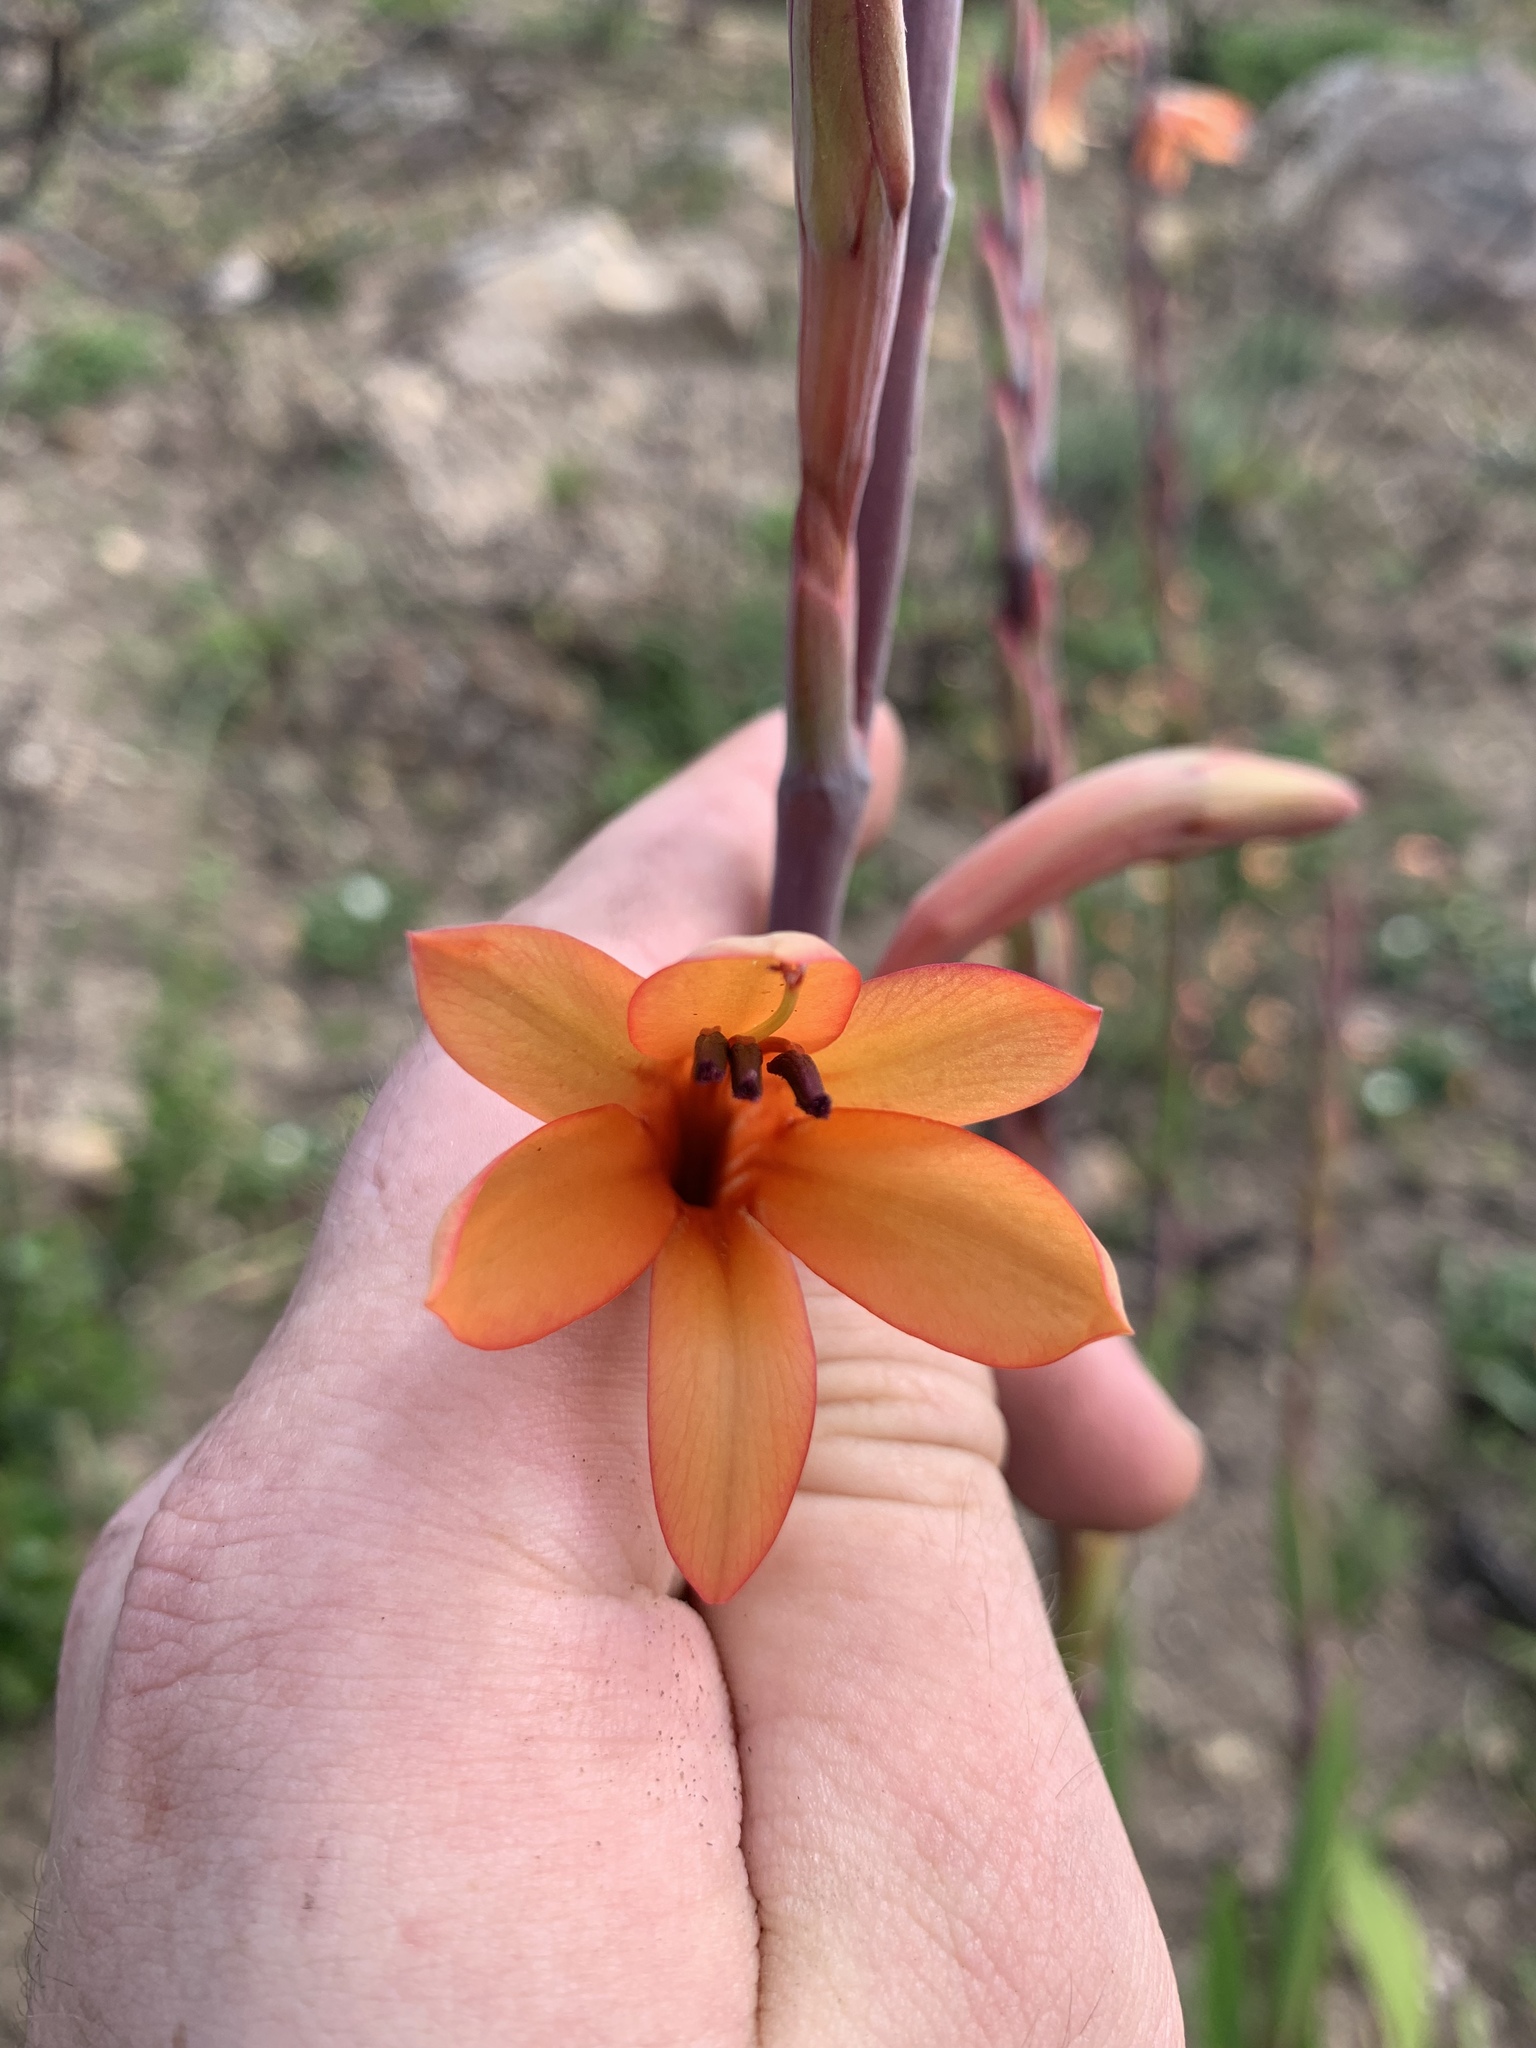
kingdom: Plantae
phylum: Tracheophyta
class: Liliopsida
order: Asparagales
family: Iridaceae
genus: Watsonia
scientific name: Watsonia tabularis
